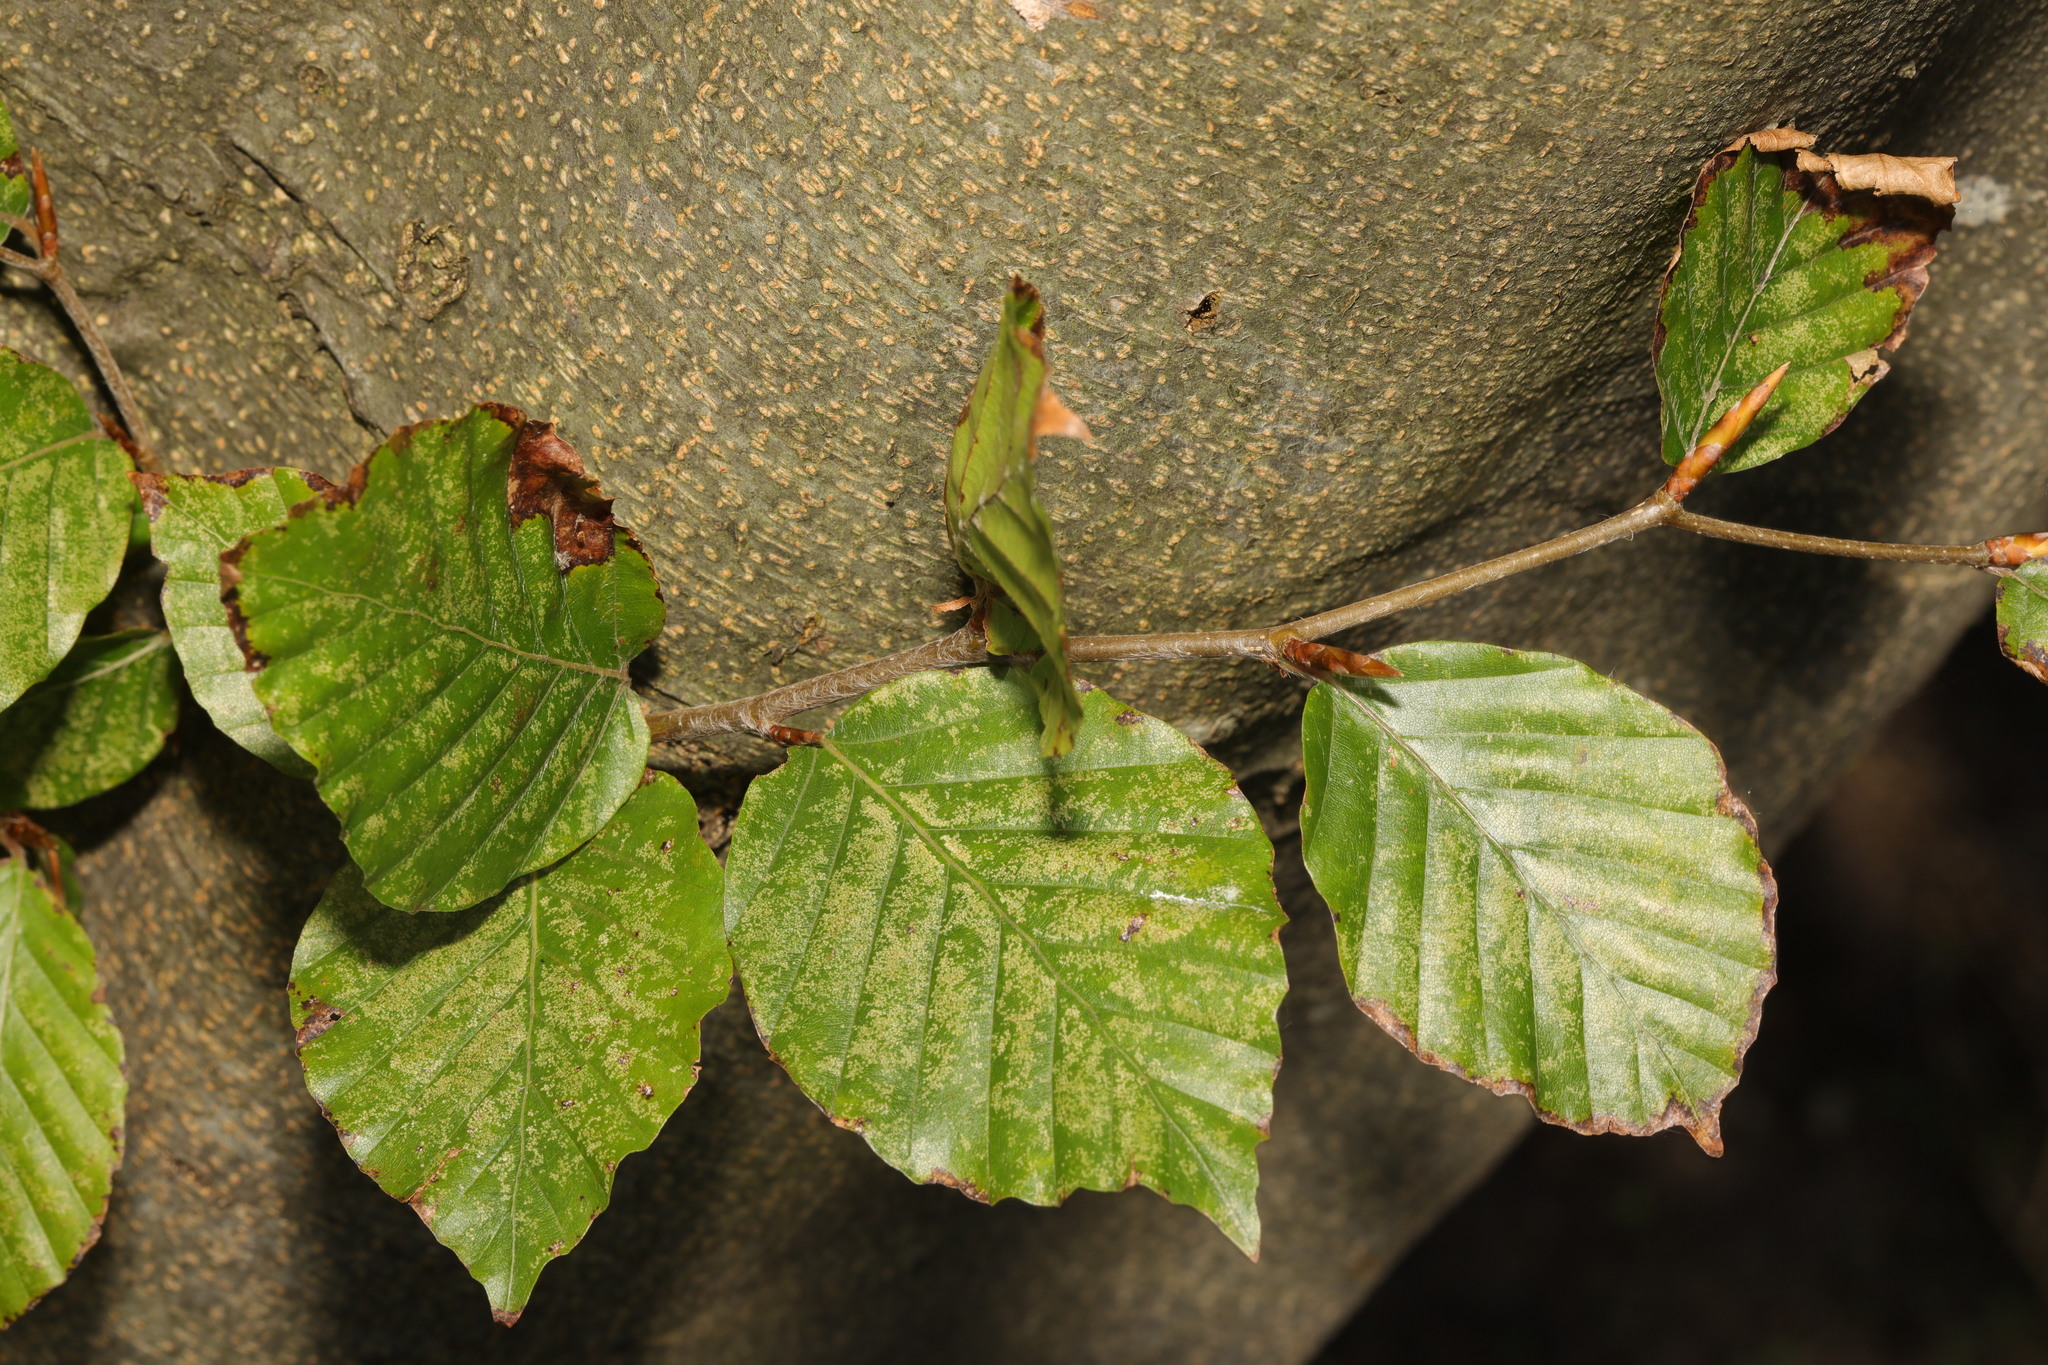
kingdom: Plantae
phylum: Tracheophyta
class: Magnoliopsida
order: Fagales
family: Fagaceae
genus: Fagus
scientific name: Fagus sylvatica
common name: Beech
